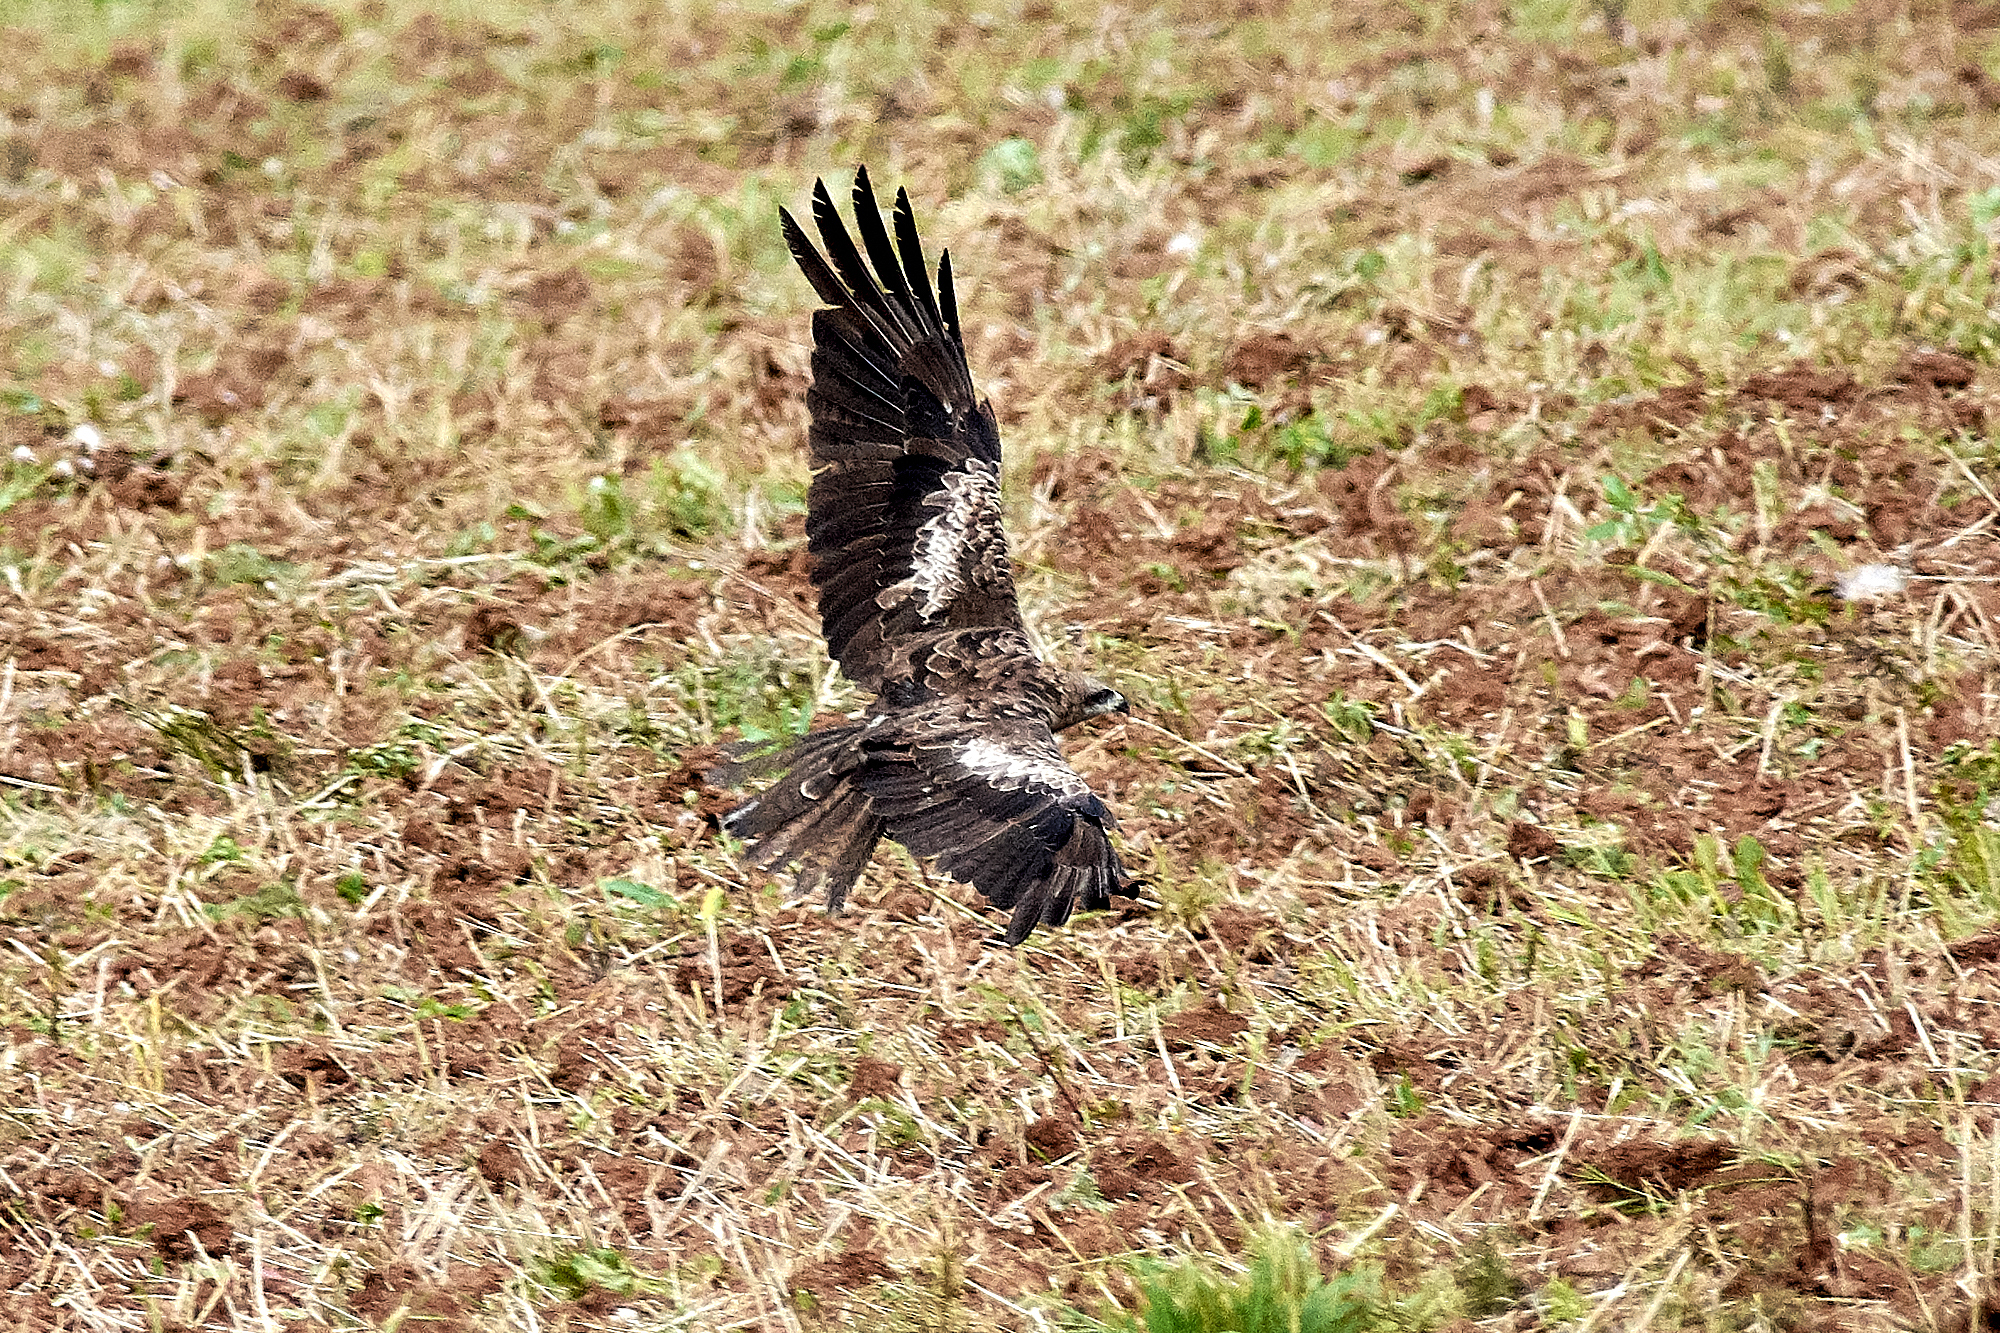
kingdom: Animalia
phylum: Chordata
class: Aves
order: Accipitriformes
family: Accipitridae
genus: Milvus
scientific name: Milvus migrans
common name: Black kite
